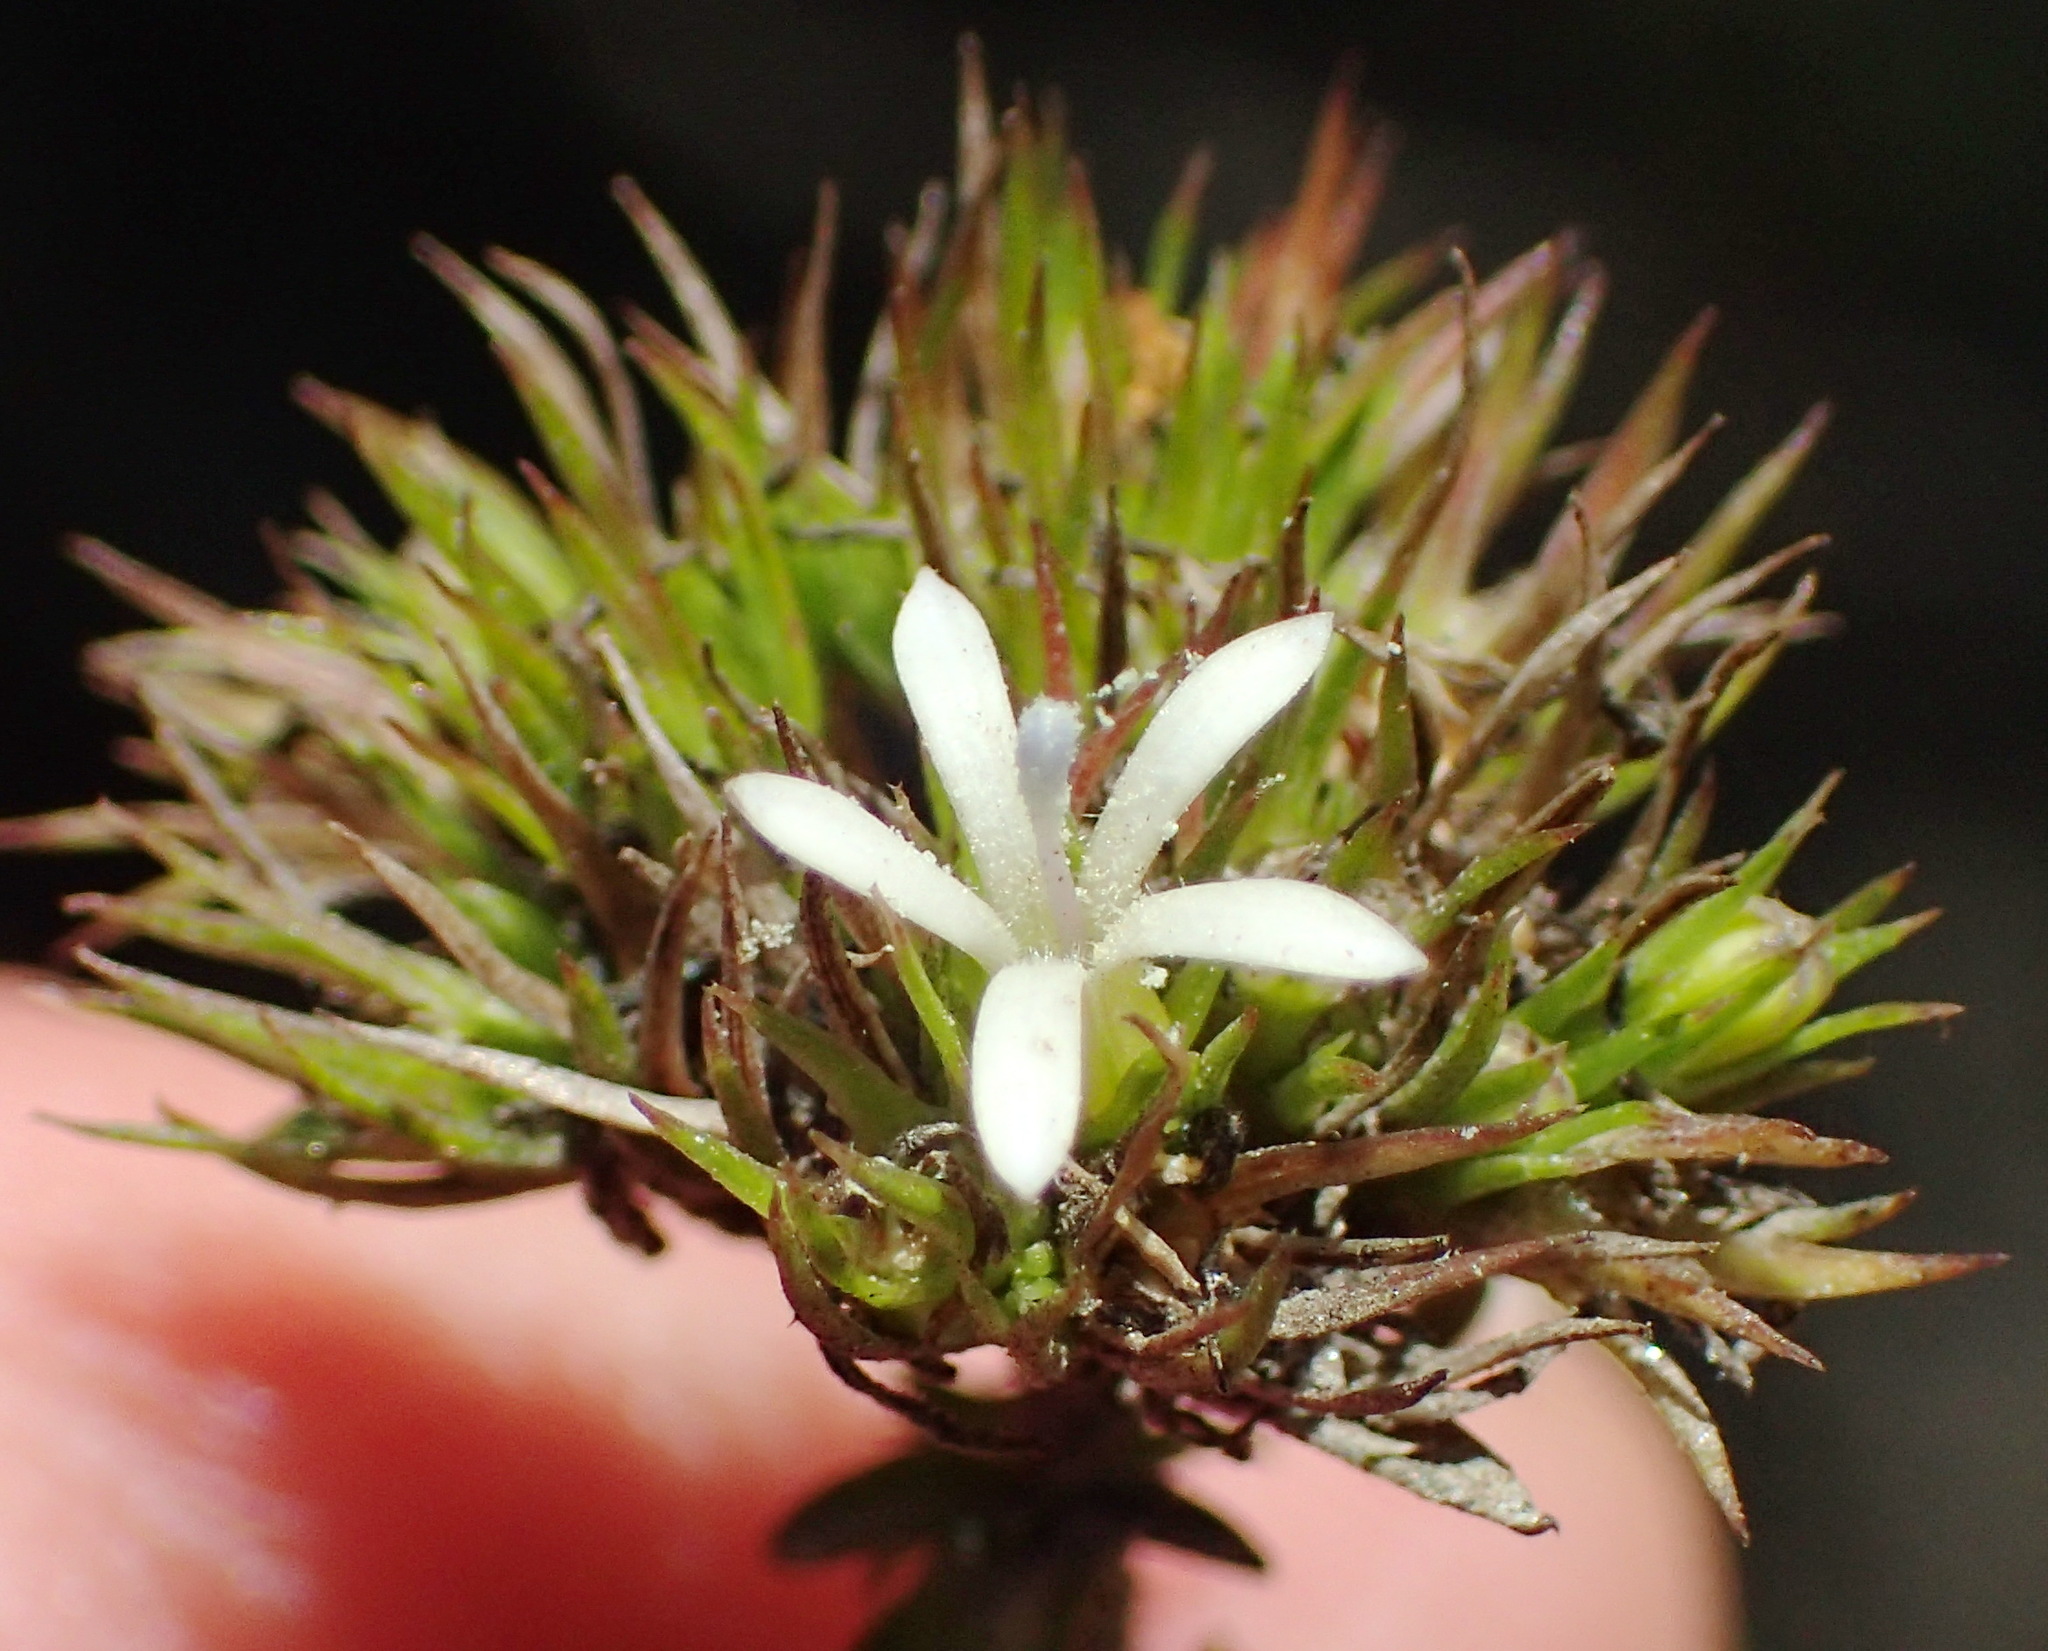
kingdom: Plantae
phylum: Tracheophyta
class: Magnoliopsida
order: Asterales
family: Campanulaceae
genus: Wahlenbergia
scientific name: Wahlenbergia desmantha
